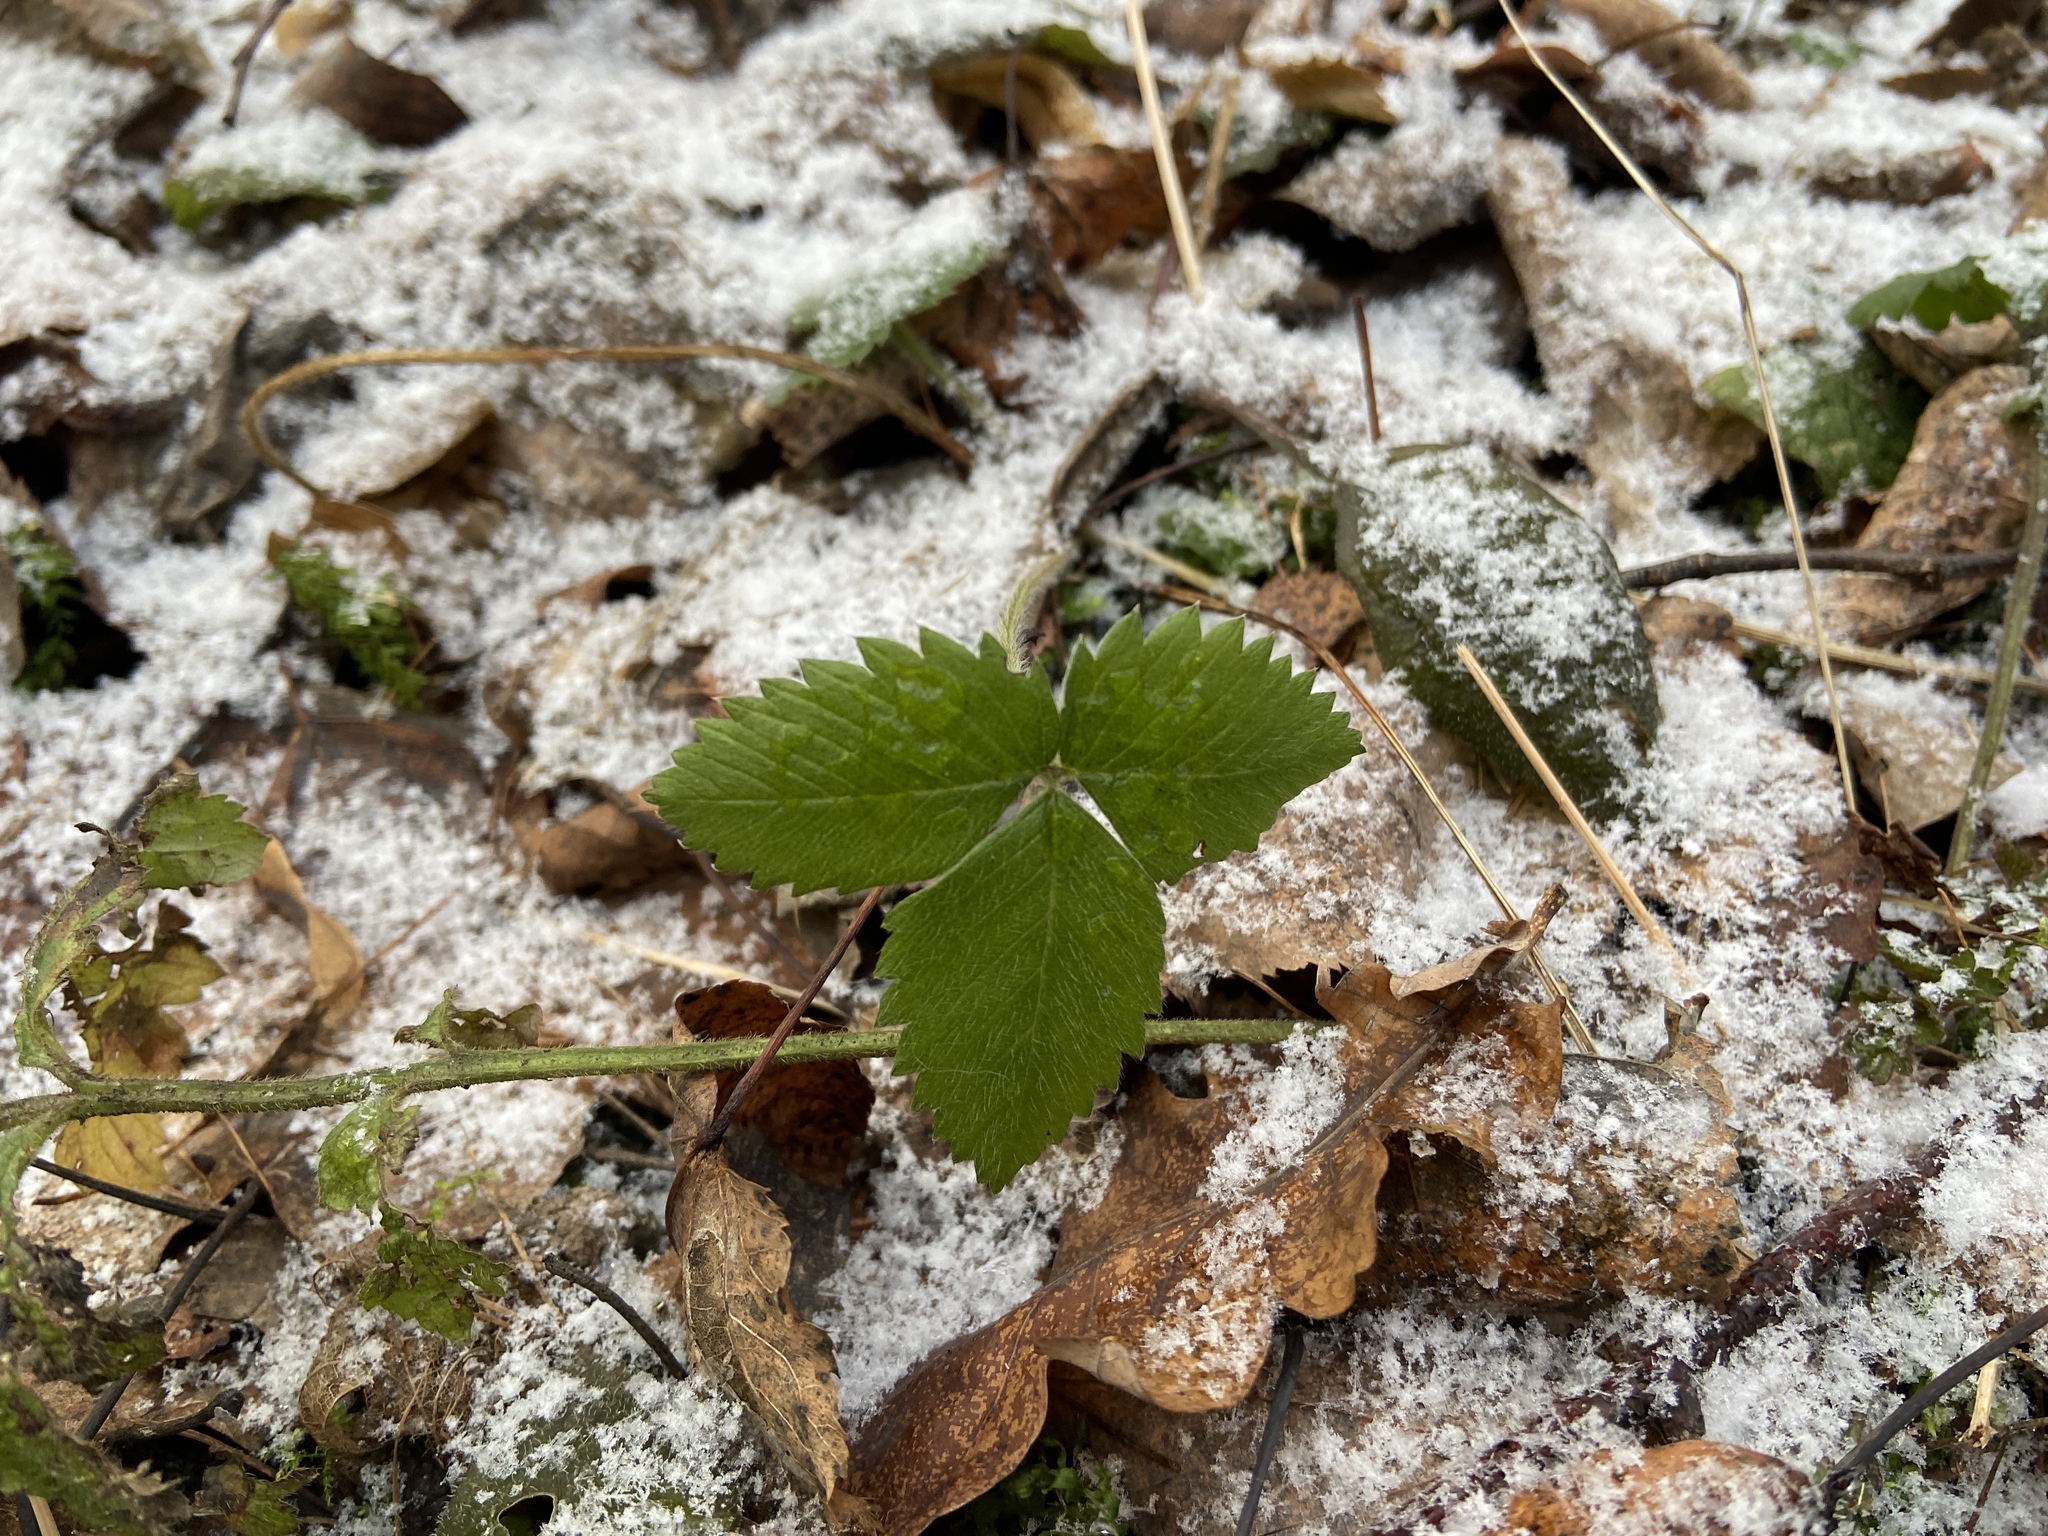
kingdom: Plantae
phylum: Tracheophyta
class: Magnoliopsida
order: Rosales
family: Rosaceae
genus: Fragaria
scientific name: Fragaria vesca
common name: Wild strawberry
